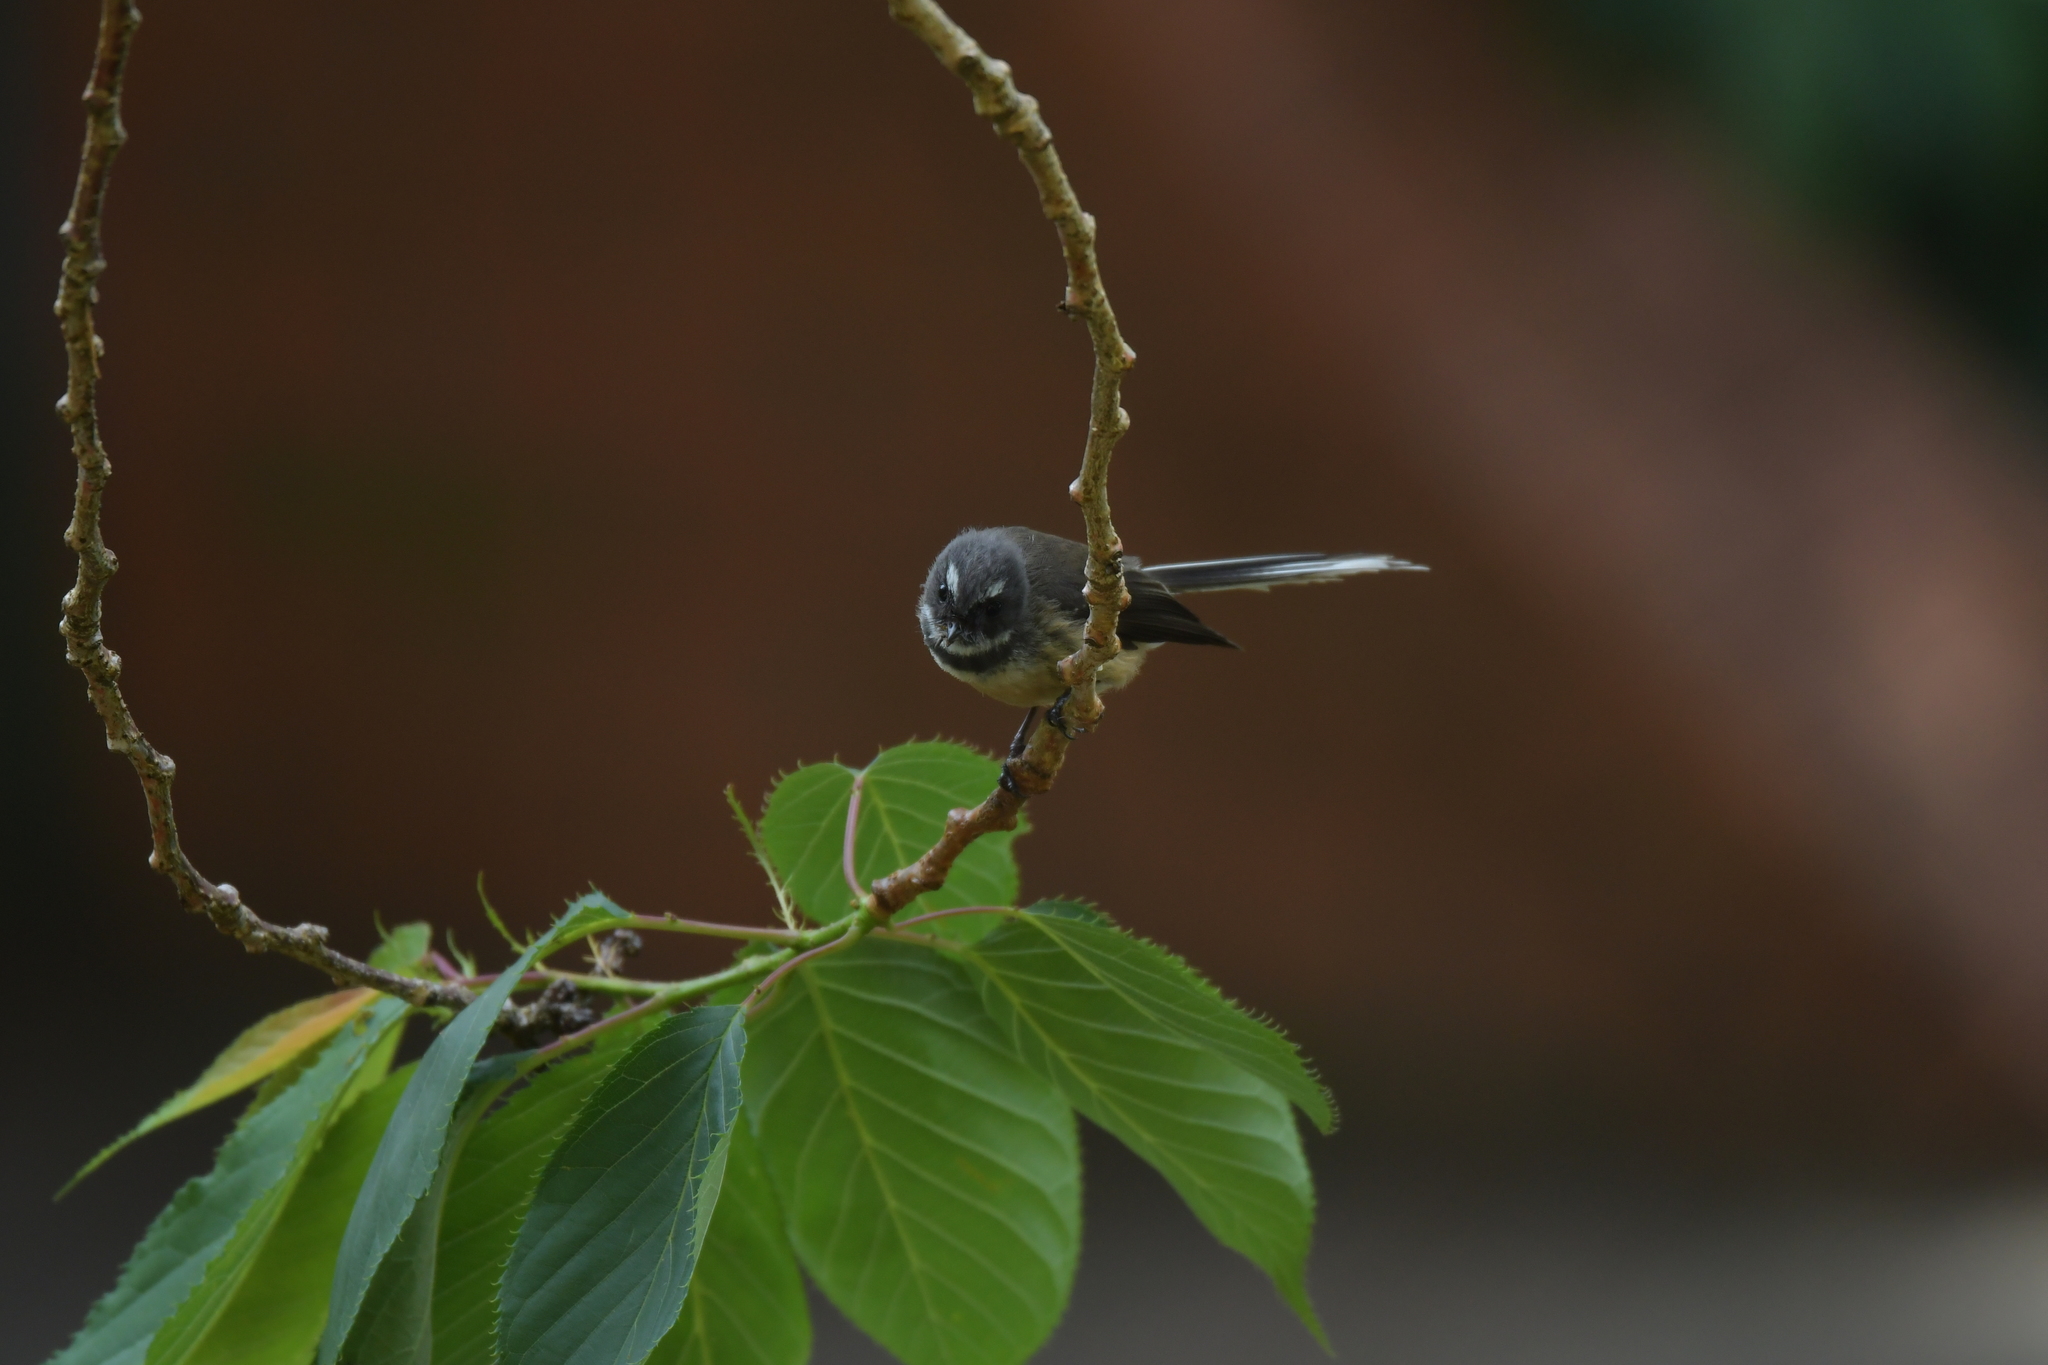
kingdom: Animalia
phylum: Chordata
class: Aves
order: Passeriformes
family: Rhipiduridae
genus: Rhipidura
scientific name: Rhipidura fuliginosa
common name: New zealand fantail
